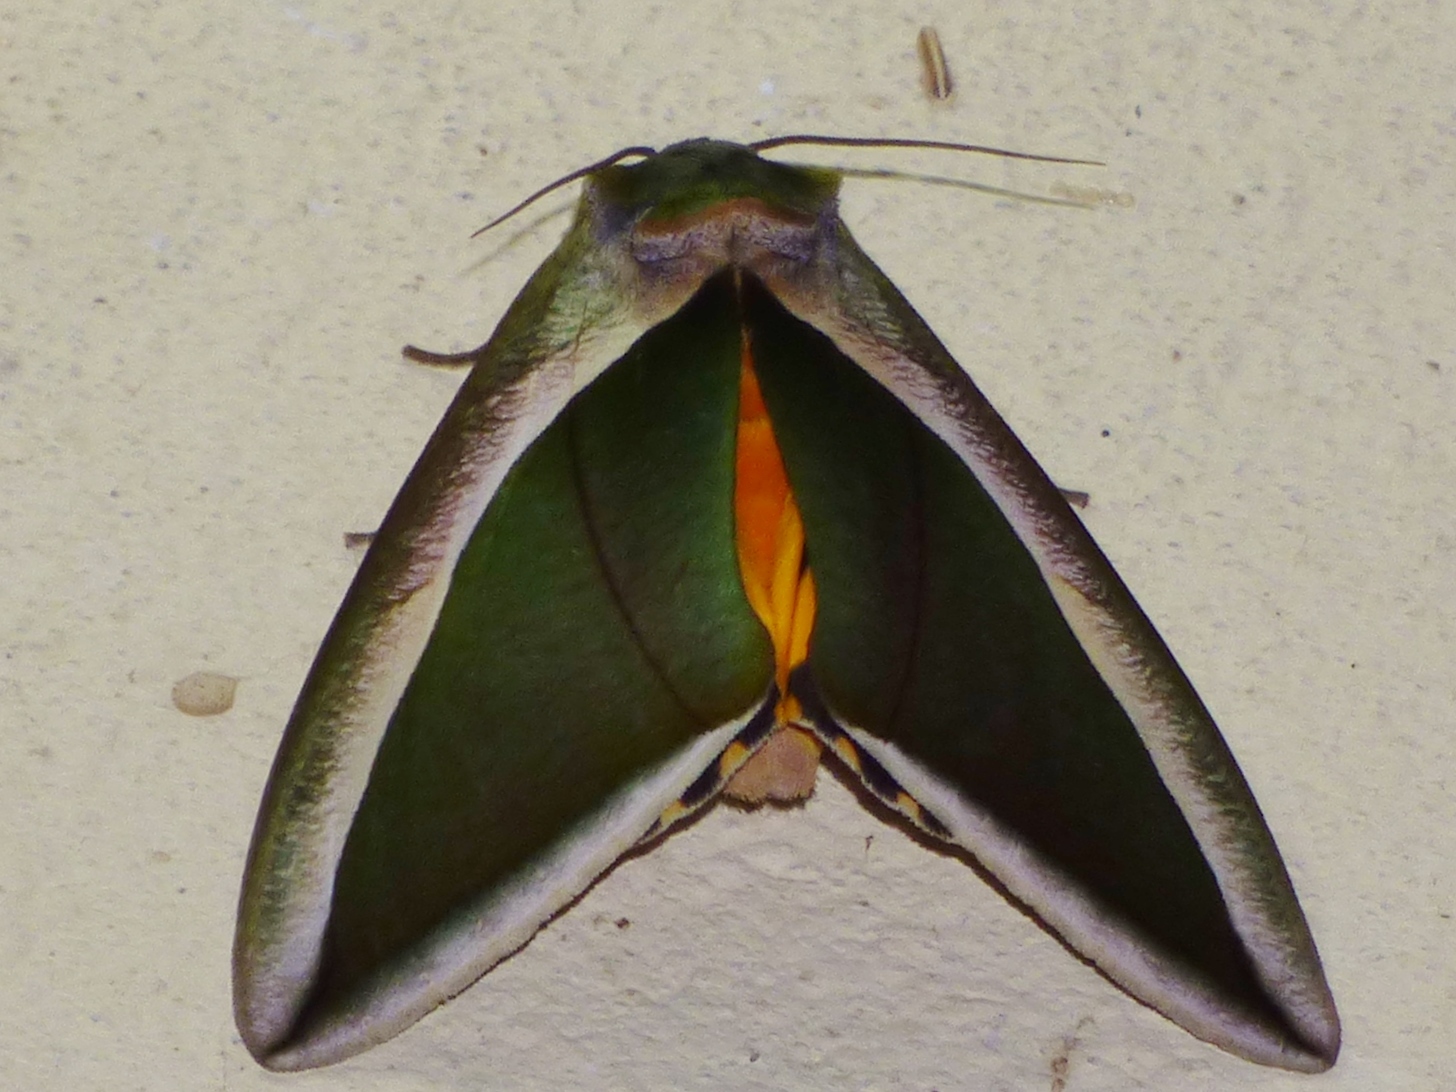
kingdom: Animalia
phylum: Arthropoda
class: Insecta
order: Lepidoptera
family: Erebidae
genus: Eudocima
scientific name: Eudocima salaminia
